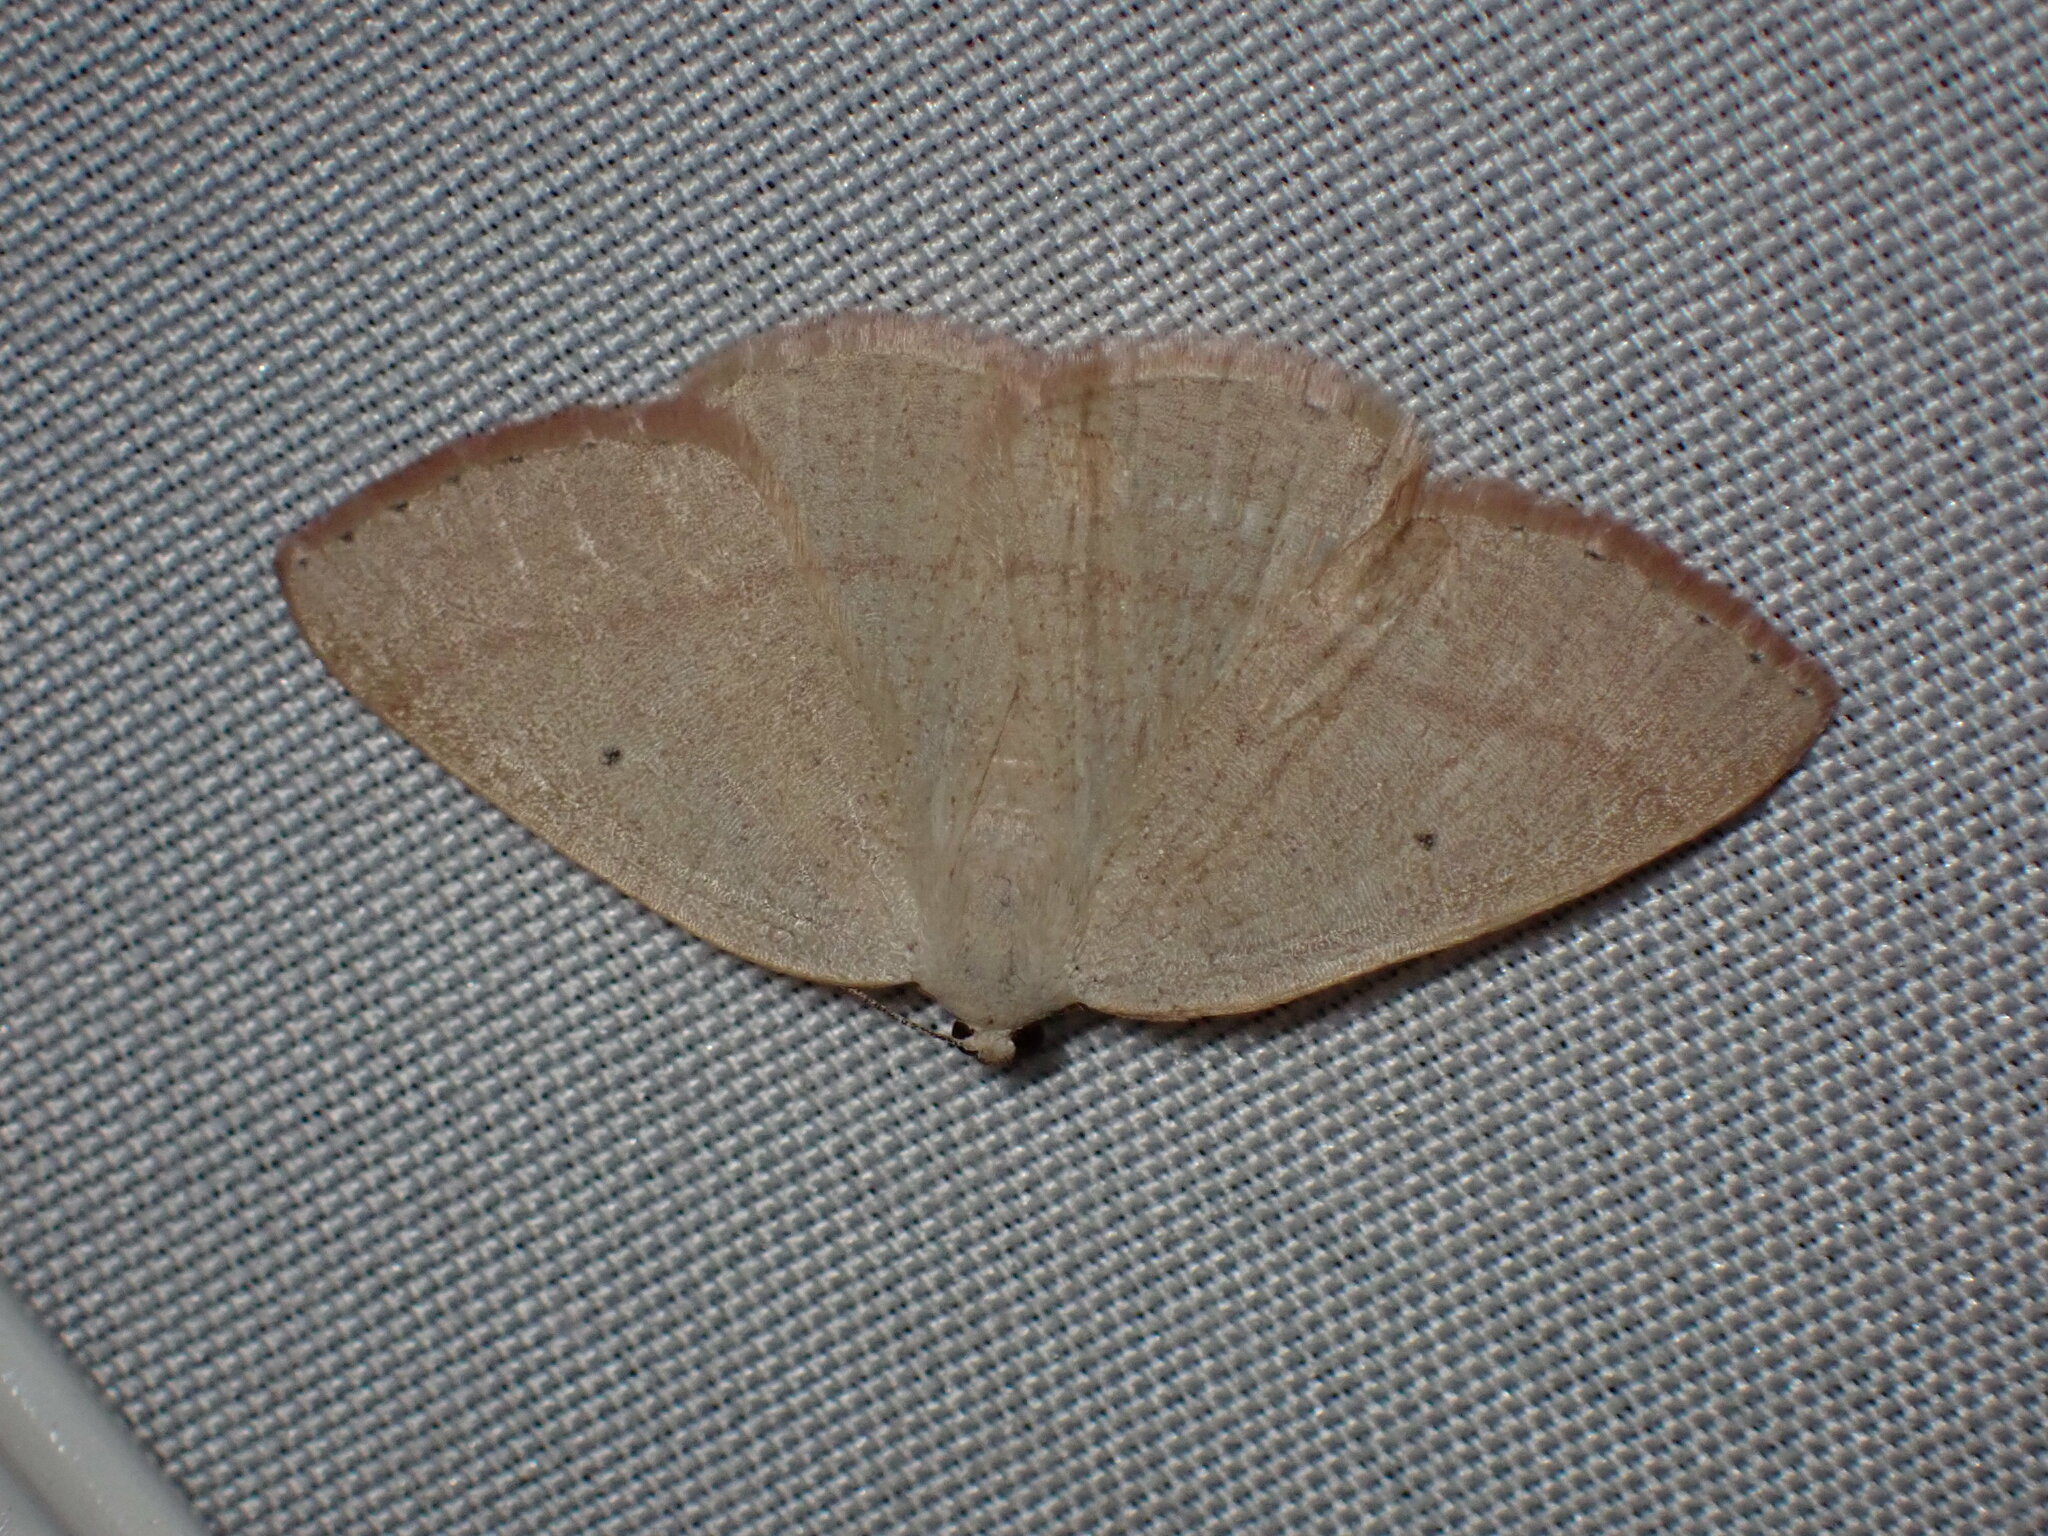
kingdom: Animalia
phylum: Arthropoda
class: Insecta
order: Lepidoptera
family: Geometridae
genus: Eudrepanulatrix
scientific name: Eudrepanulatrix rectifascia
